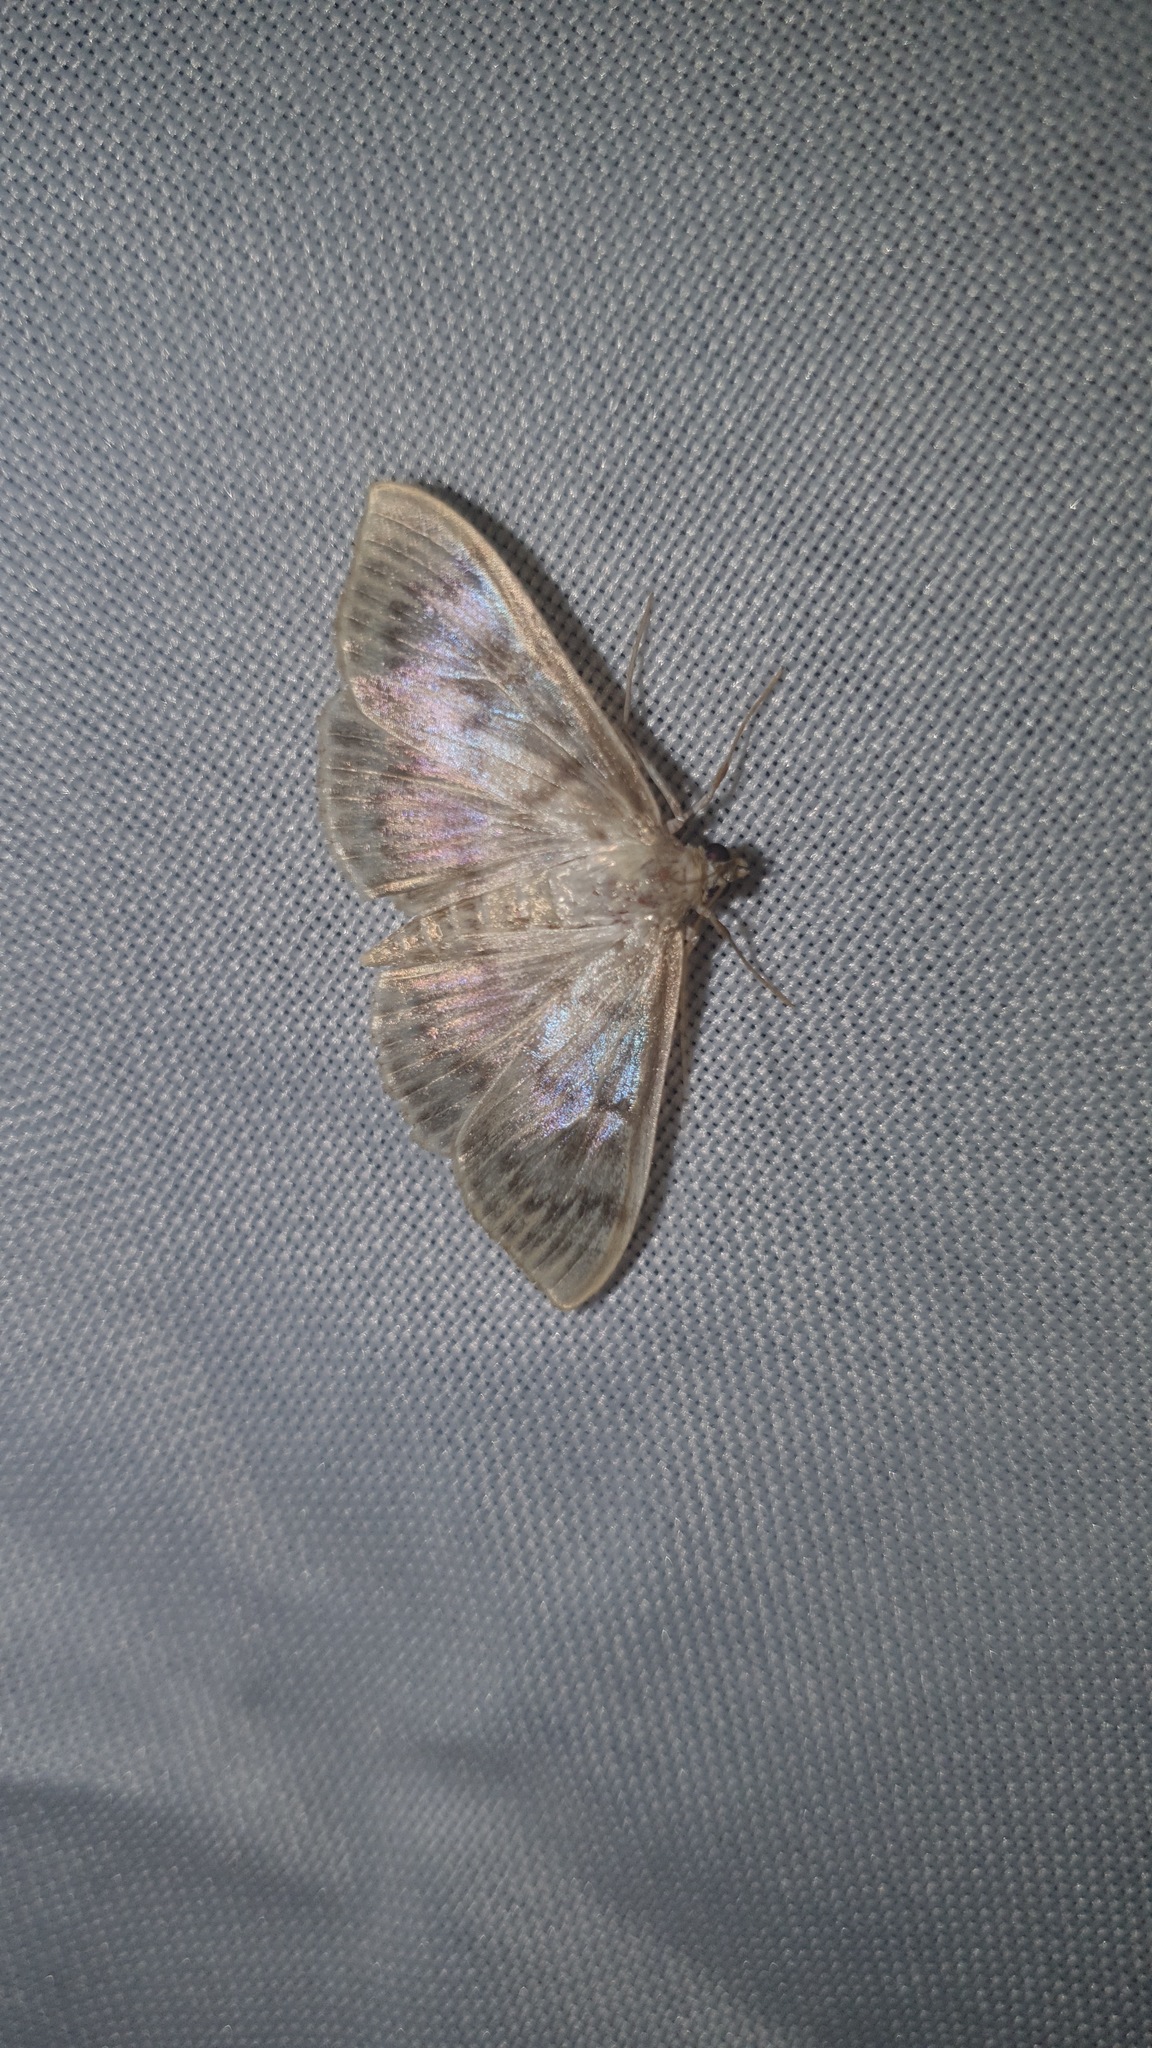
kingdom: Animalia
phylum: Arthropoda
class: Insecta
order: Lepidoptera
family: Crambidae
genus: Patania
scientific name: Patania ruralis
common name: Mother of pearl
